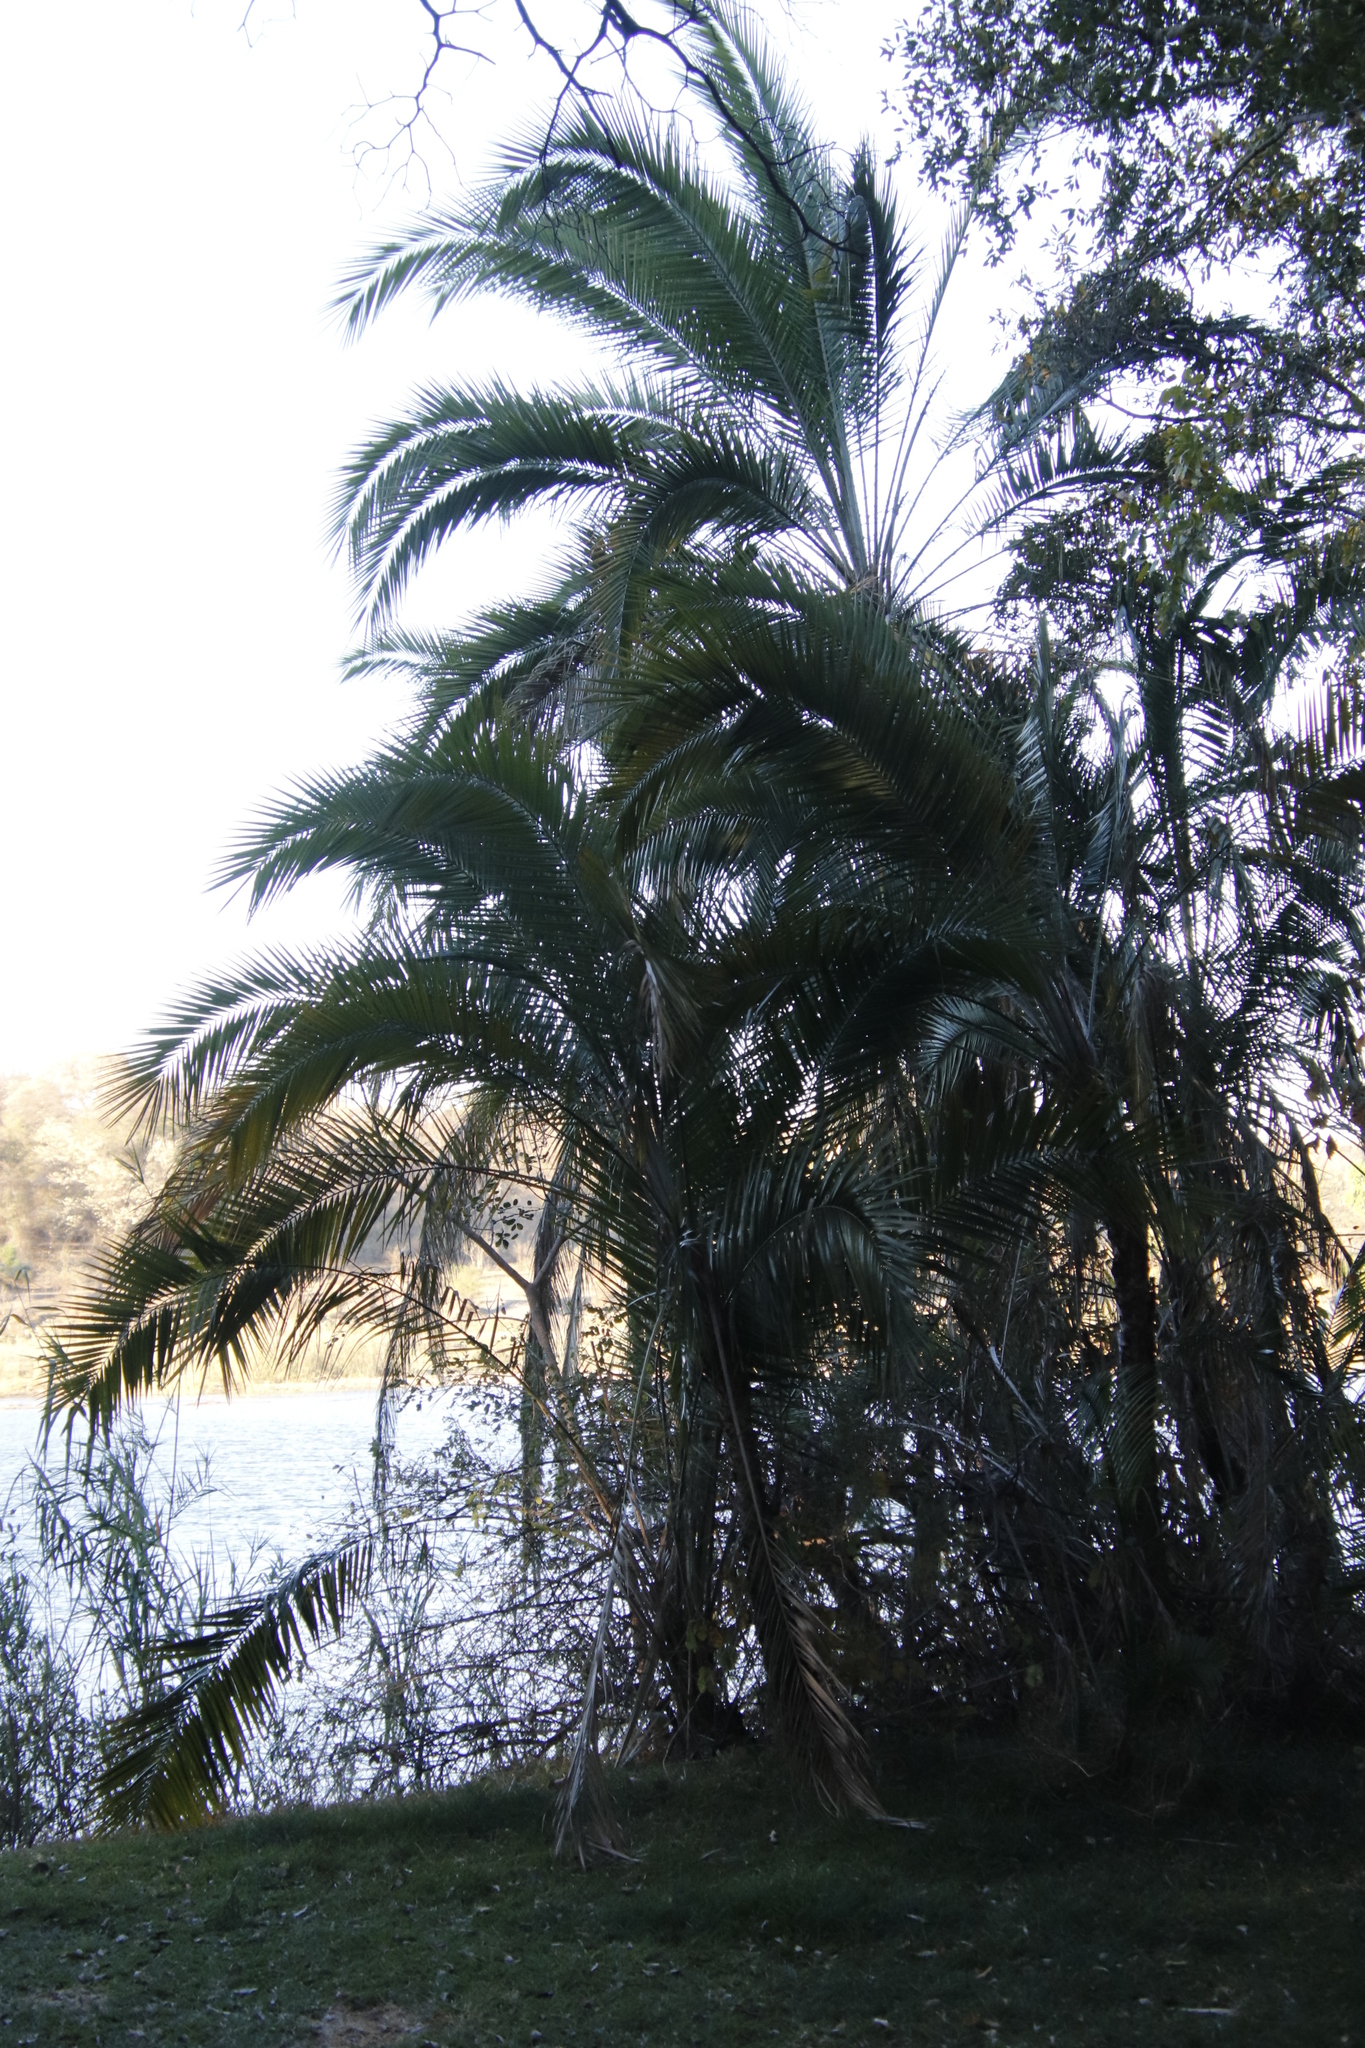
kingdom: Plantae
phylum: Tracheophyta
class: Liliopsida
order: Arecales
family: Arecaceae
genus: Phoenix
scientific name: Phoenix reclinata
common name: Senegal date palm
